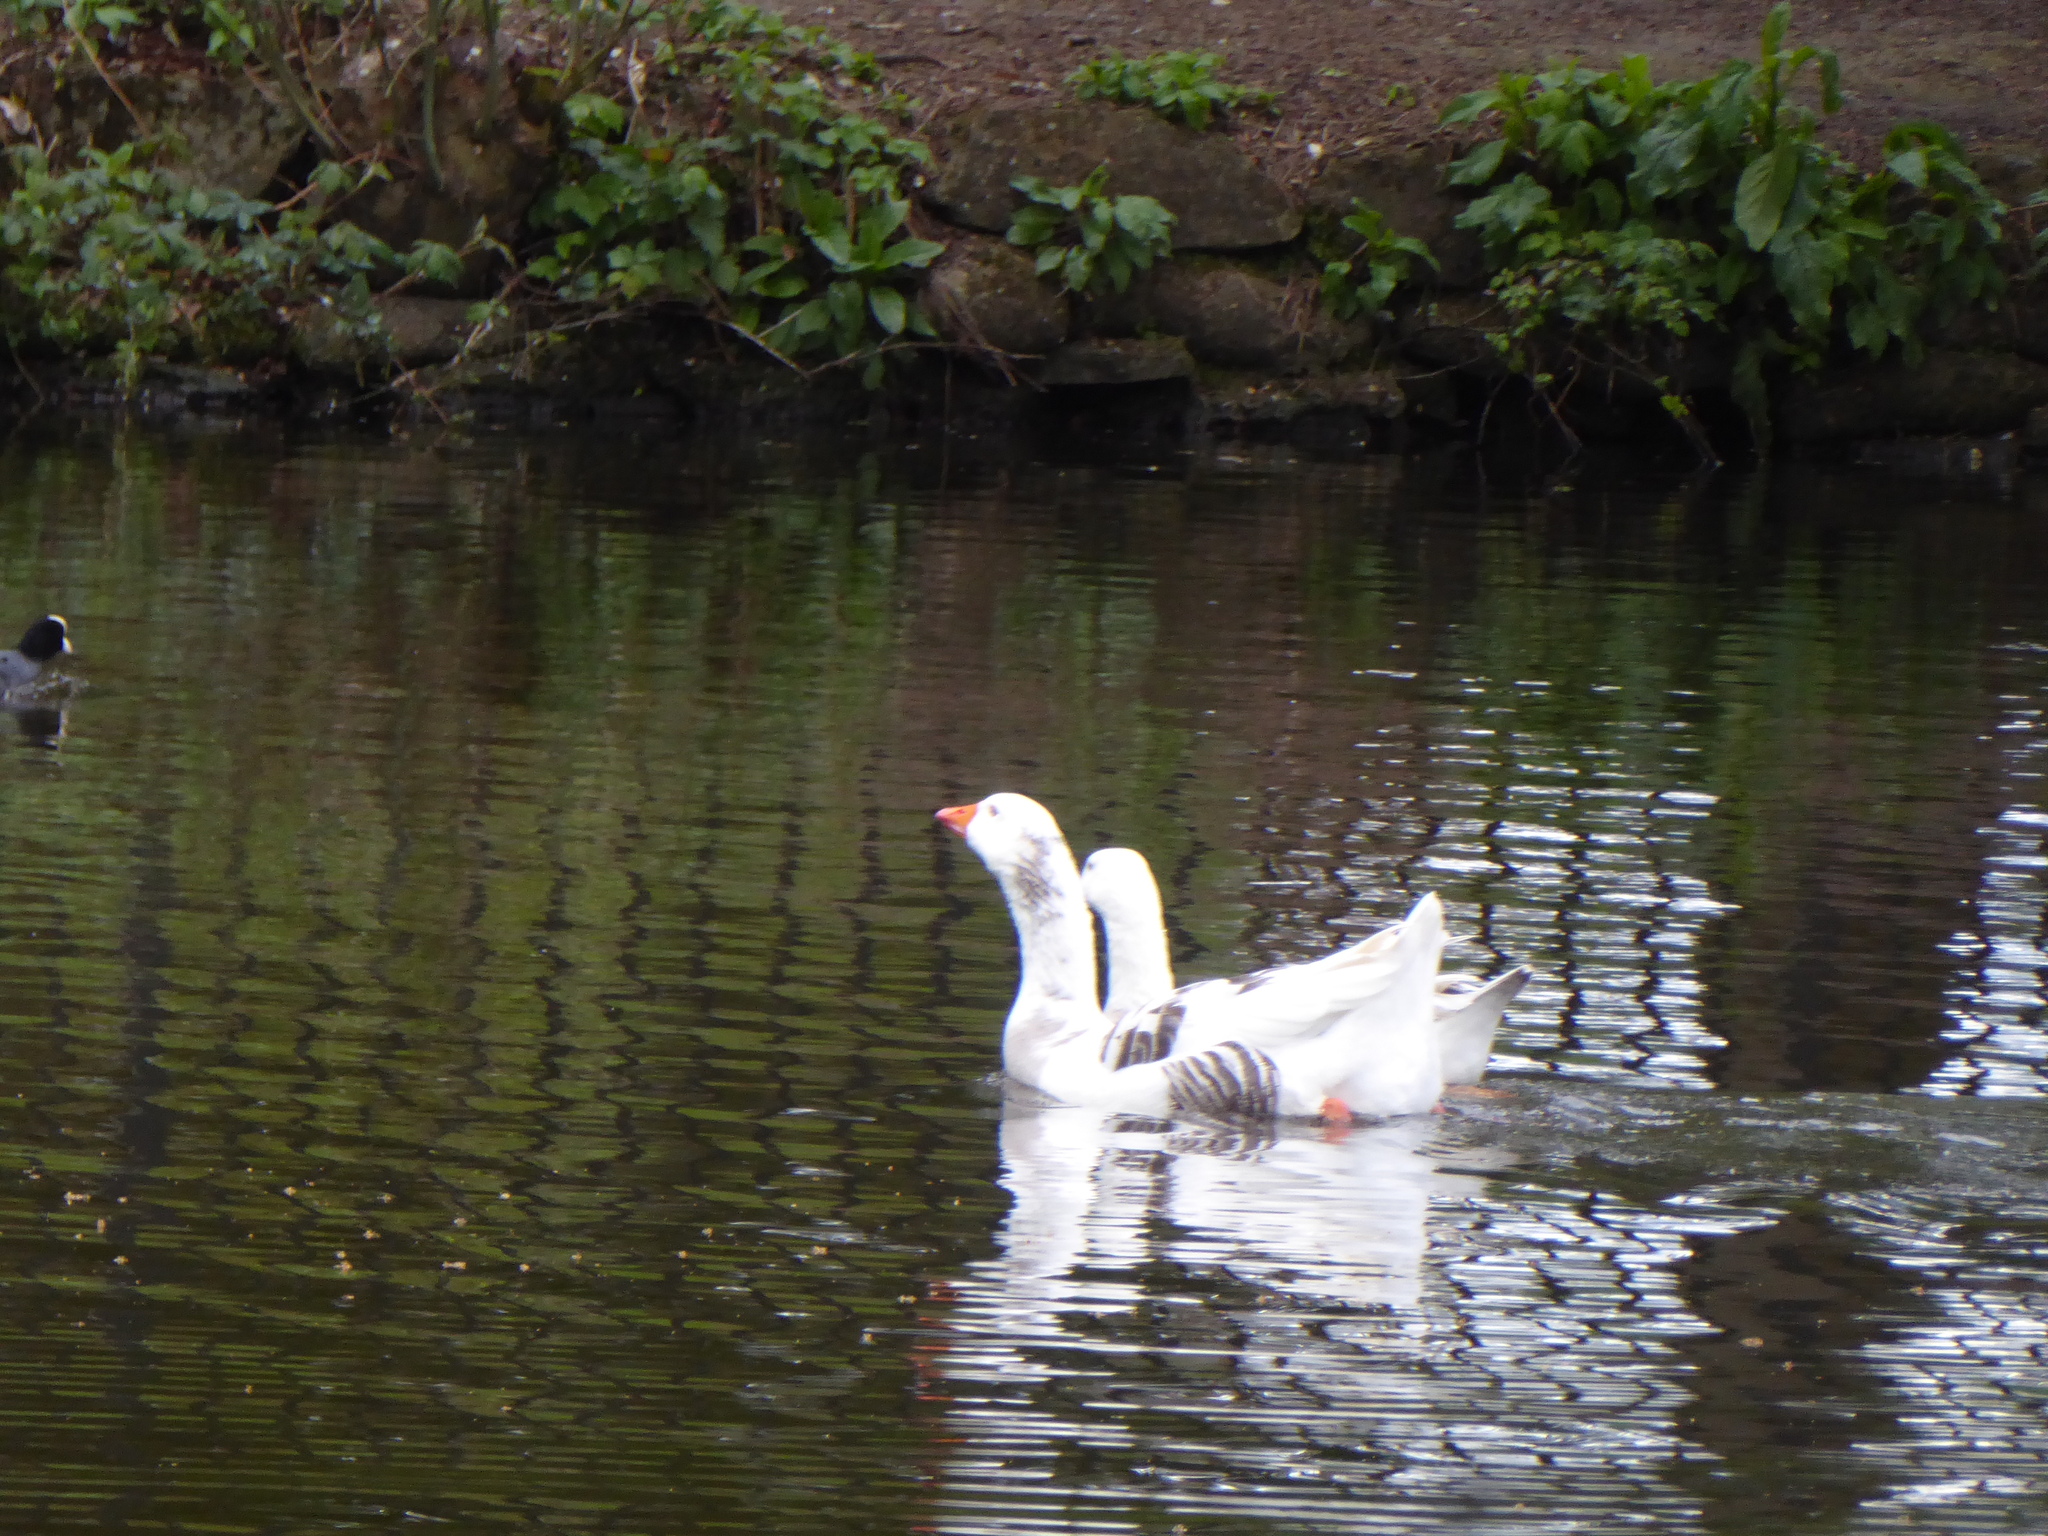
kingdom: Animalia
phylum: Chordata
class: Aves
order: Anseriformes
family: Anatidae
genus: Anser
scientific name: Anser anser
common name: Greylag goose
